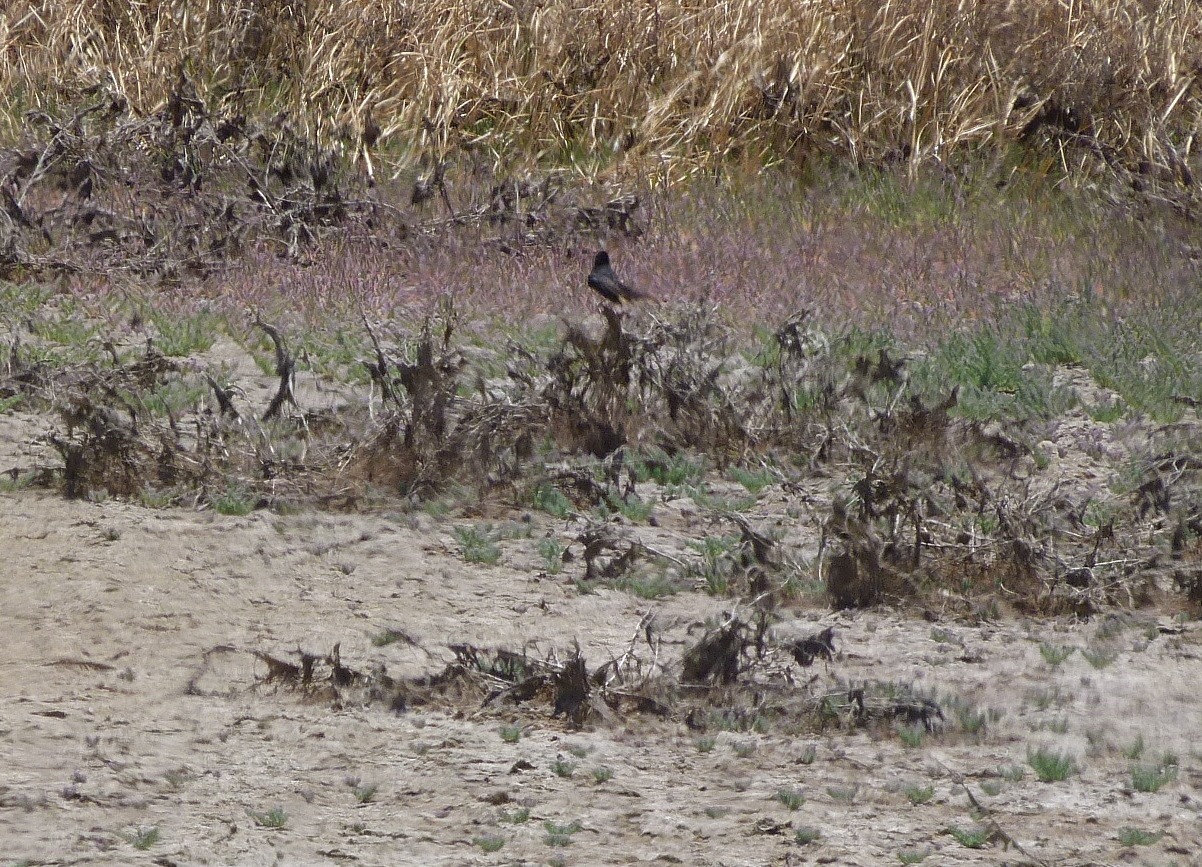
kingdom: Animalia
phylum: Chordata
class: Aves
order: Passeriformes
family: Rhipiduridae
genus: Rhipidura
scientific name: Rhipidura leucophrys
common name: Willie wagtail
